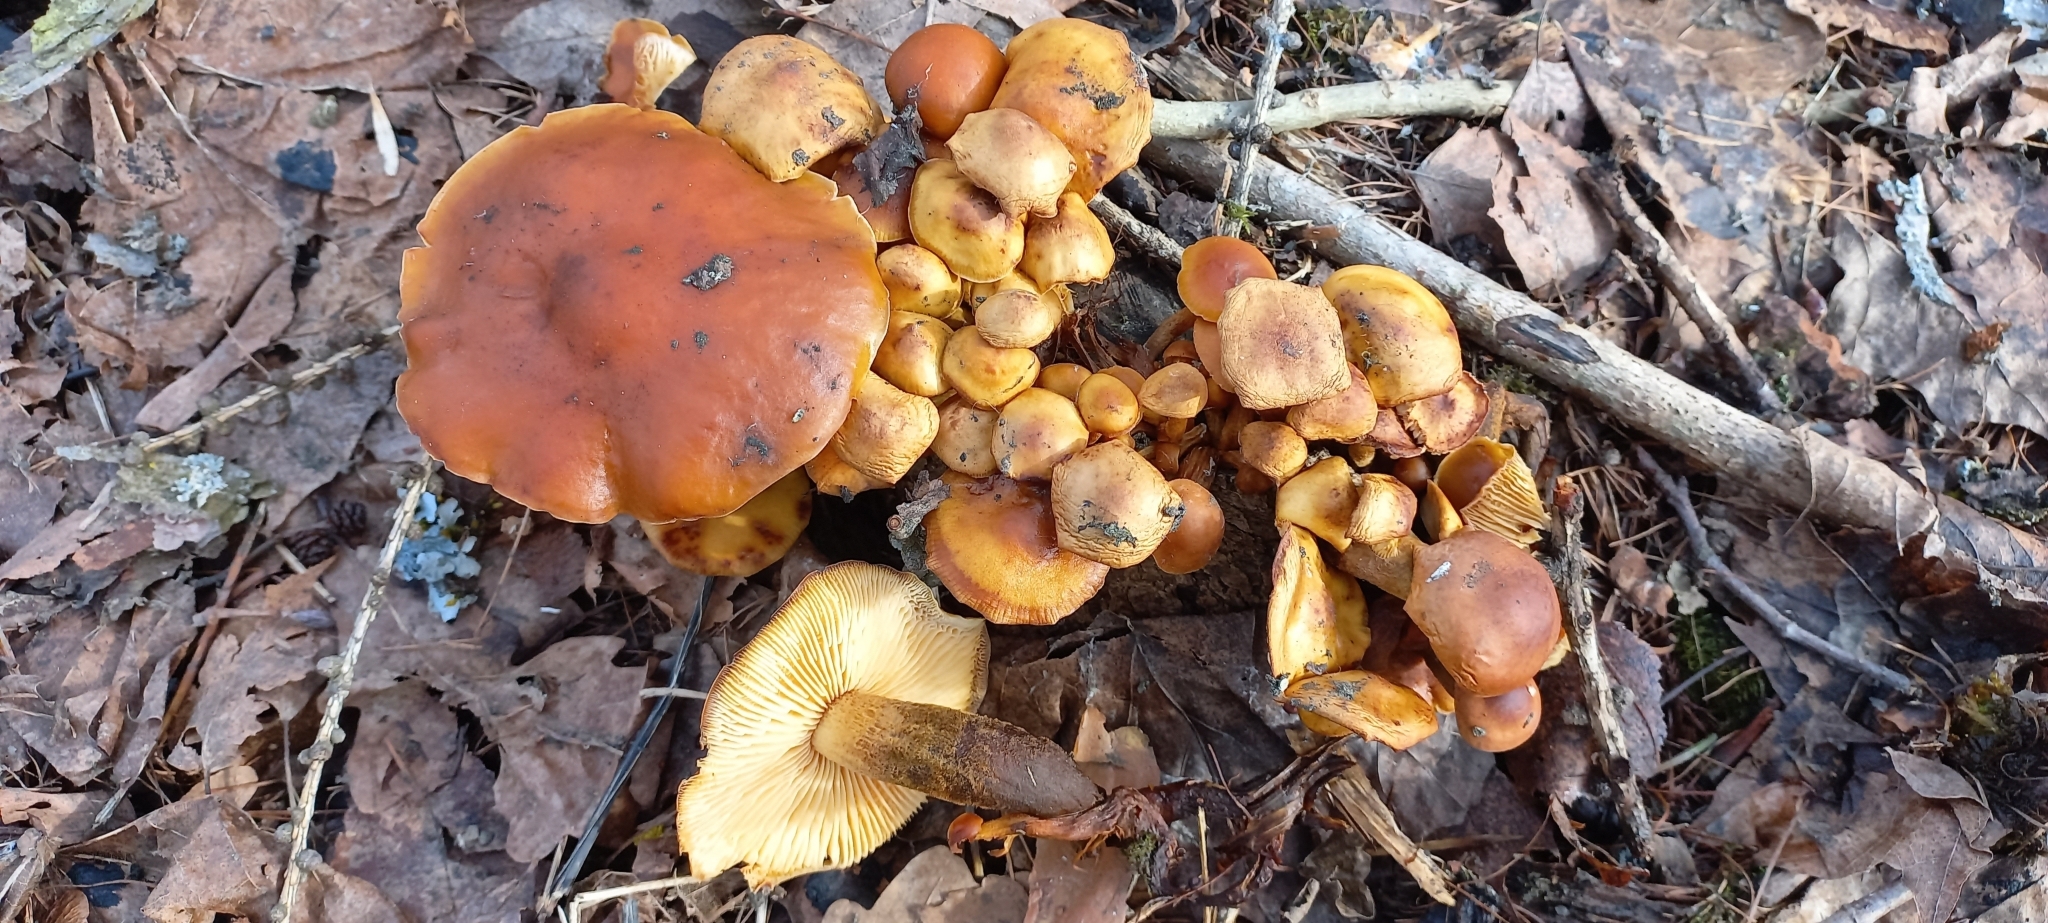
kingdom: Fungi
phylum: Basidiomycota
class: Agaricomycetes
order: Agaricales
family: Physalacriaceae
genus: Flammulina
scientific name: Flammulina
